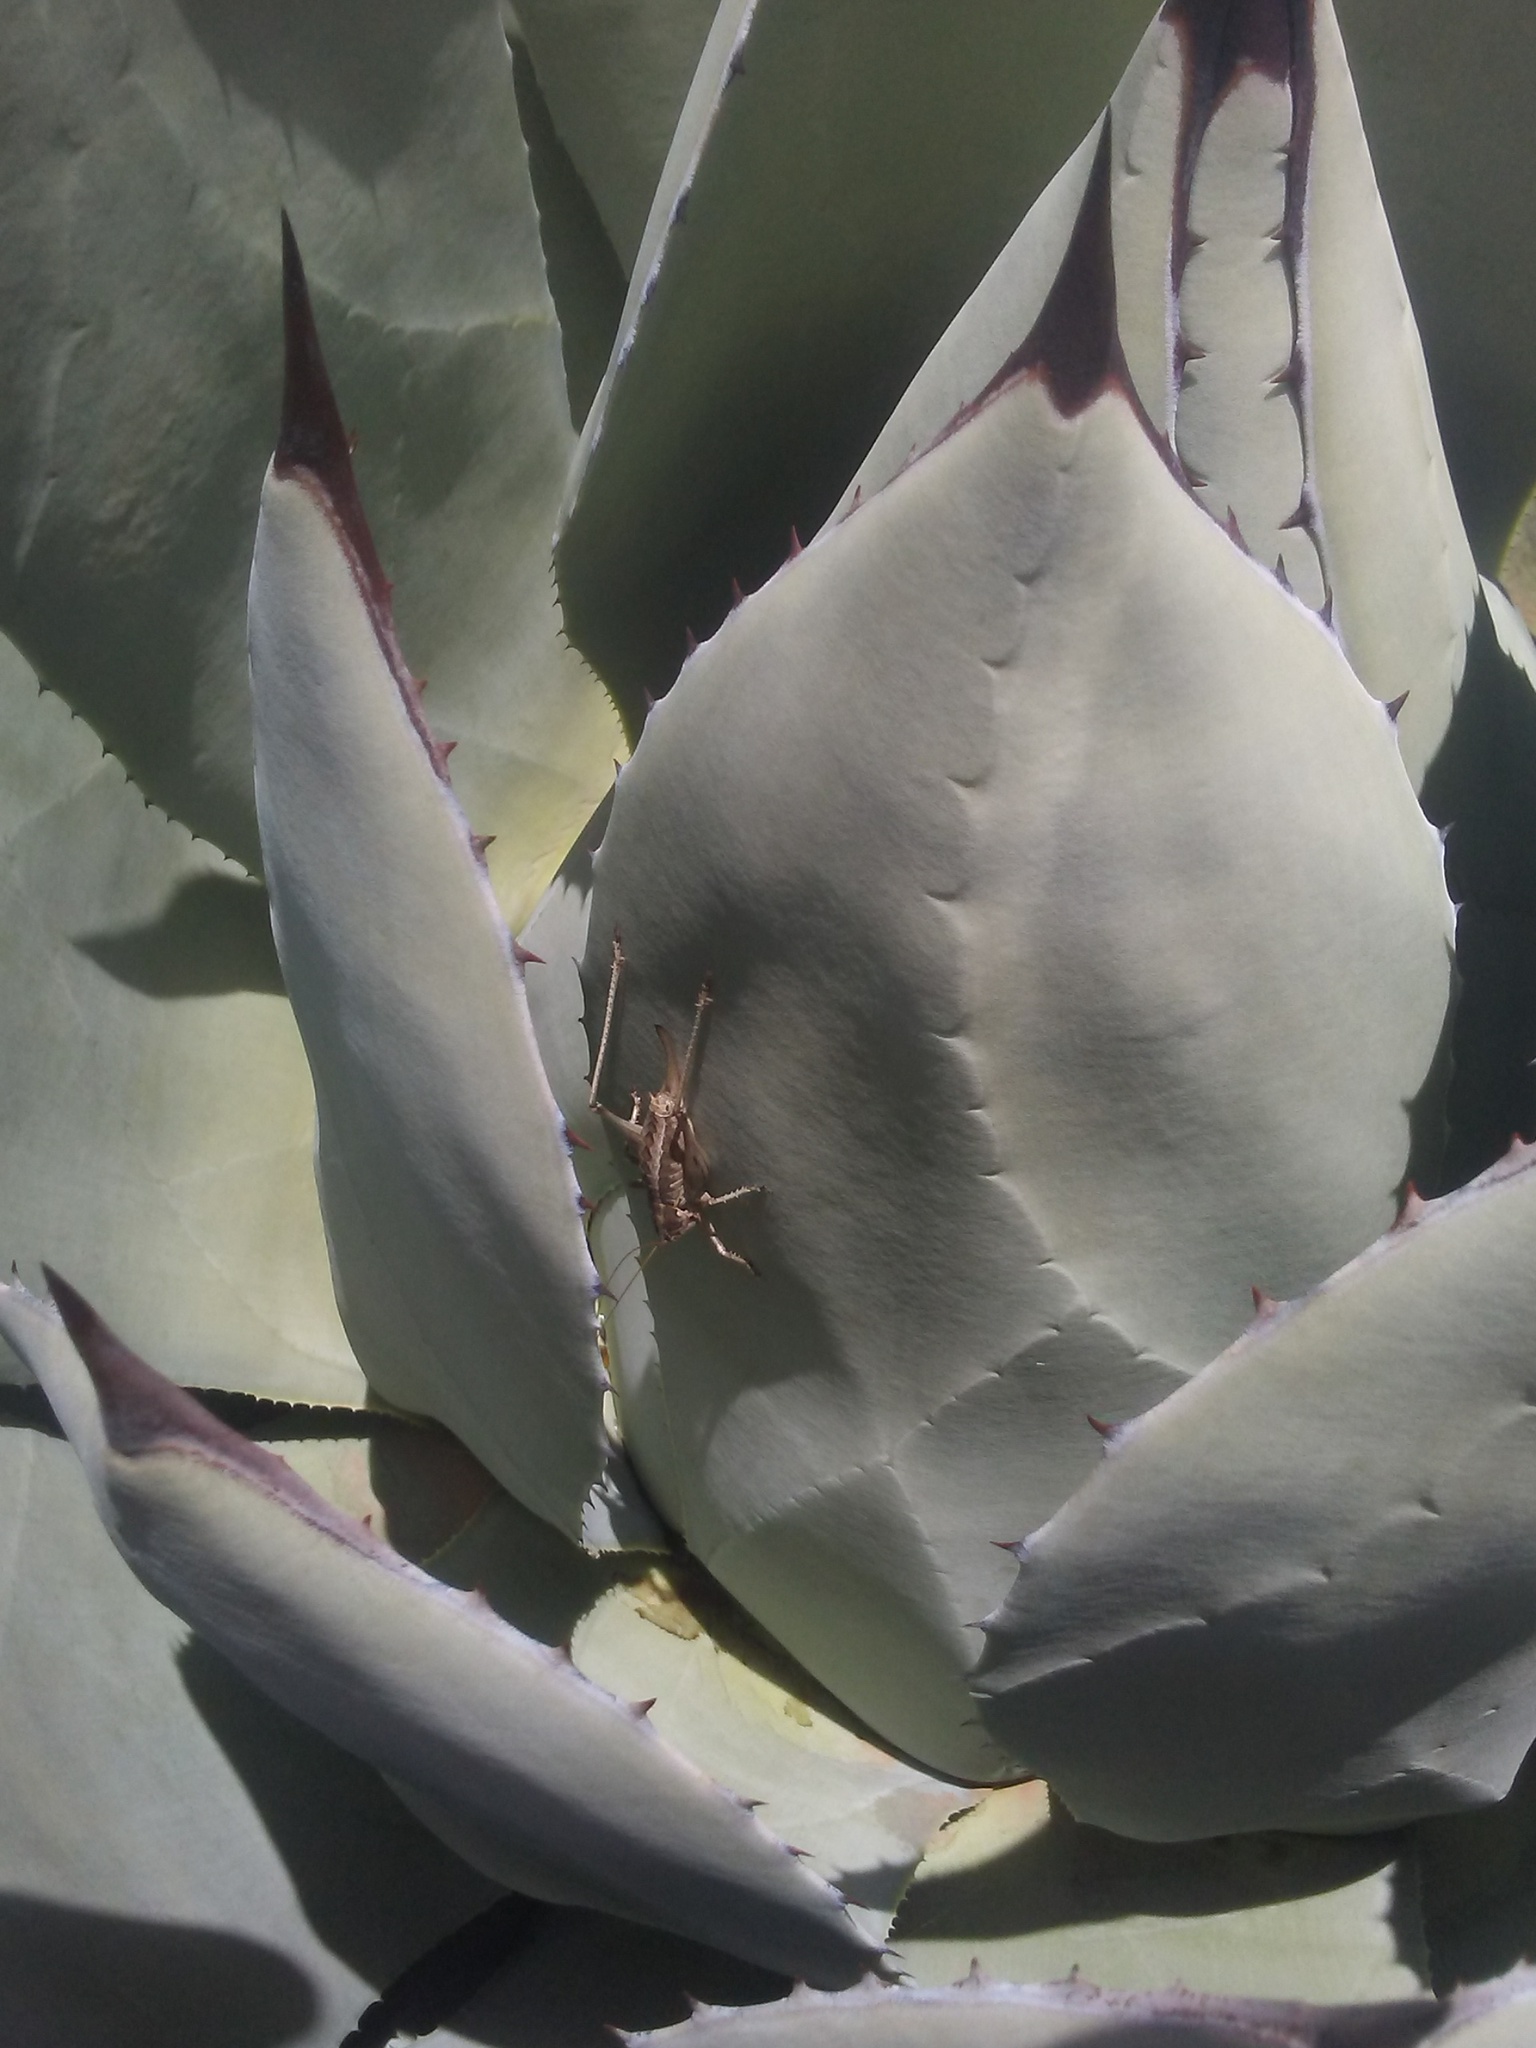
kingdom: Plantae
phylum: Tracheophyta
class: Liliopsida
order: Asparagales
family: Asparagaceae
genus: Agave
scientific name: Agave parryi
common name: Parry's agave
